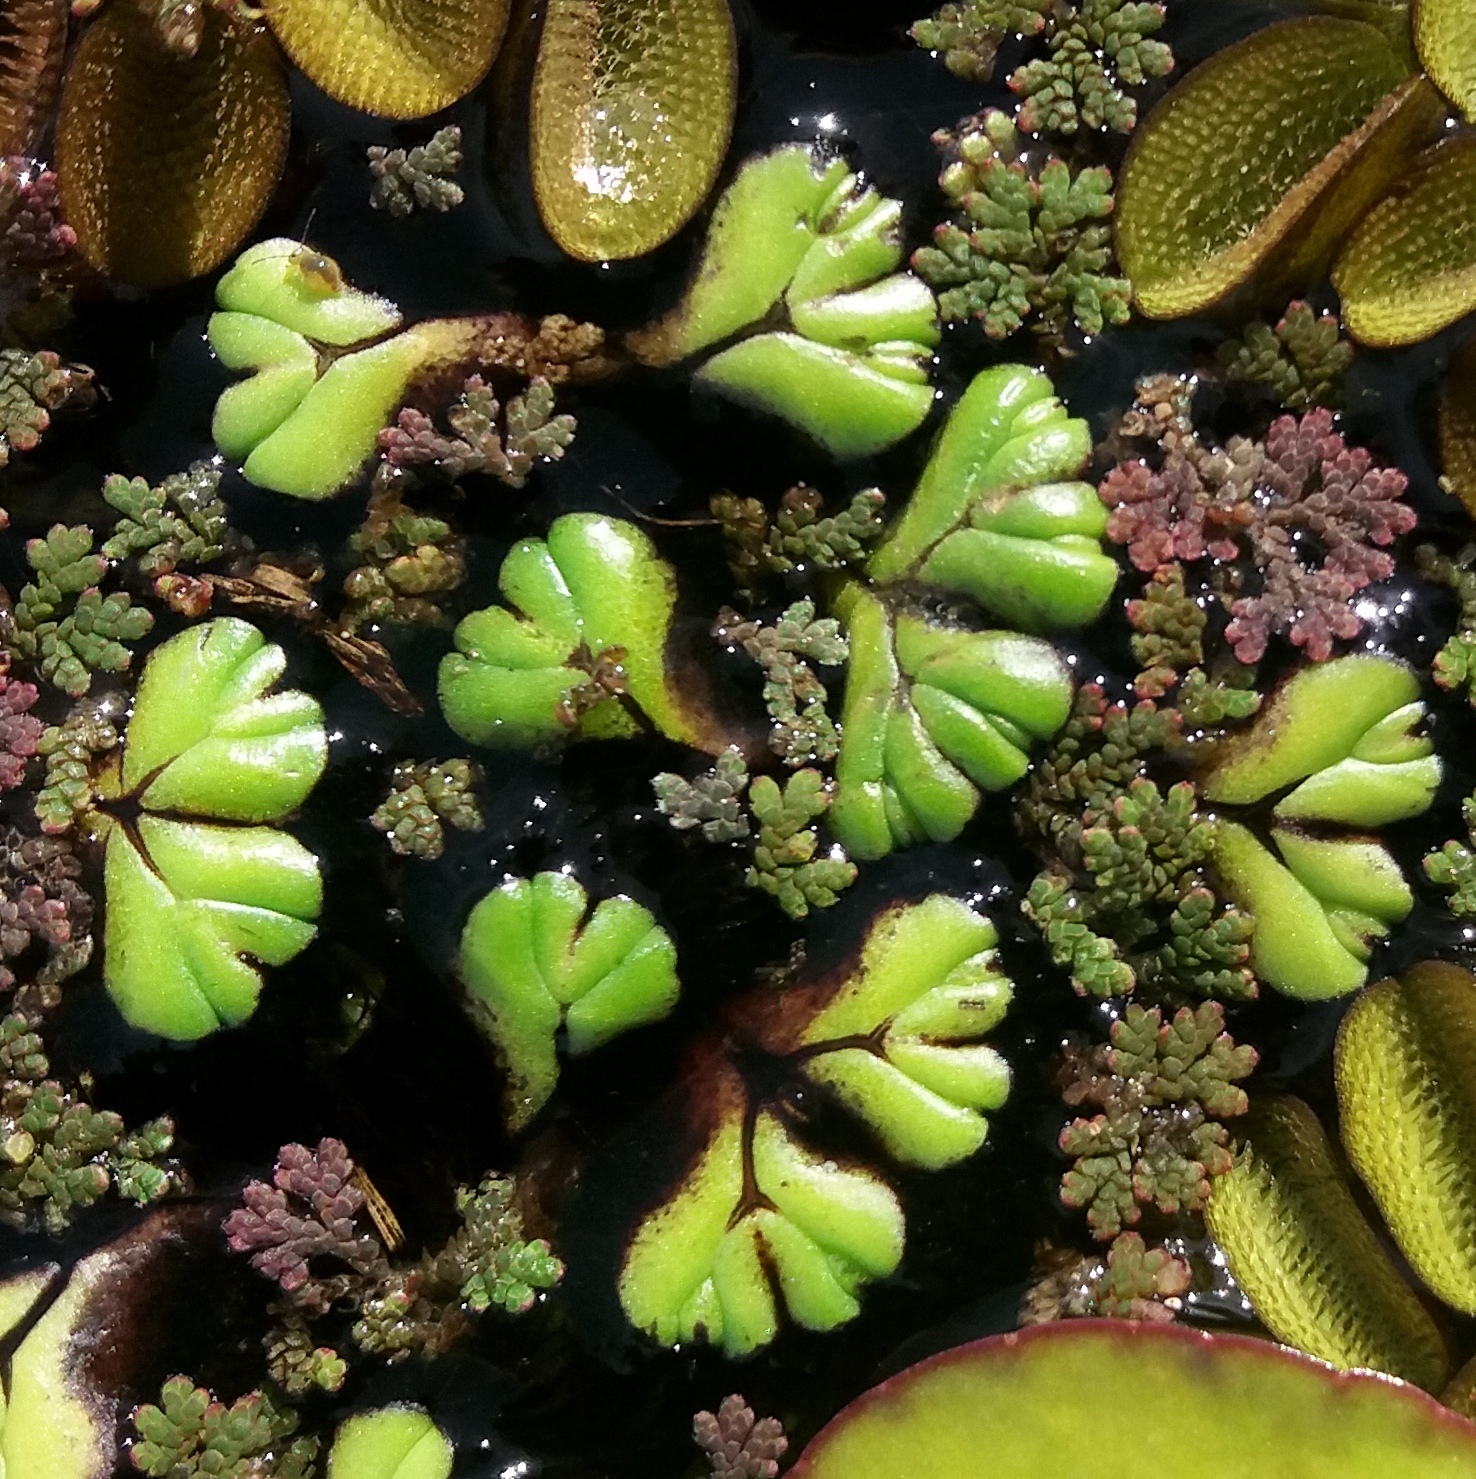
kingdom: Plantae
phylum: Marchantiophyta
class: Marchantiopsida
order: Marchantiales
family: Ricciaceae
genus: Ricciocarpos
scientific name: Ricciocarpos natans
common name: Purple-fringed liverwort
